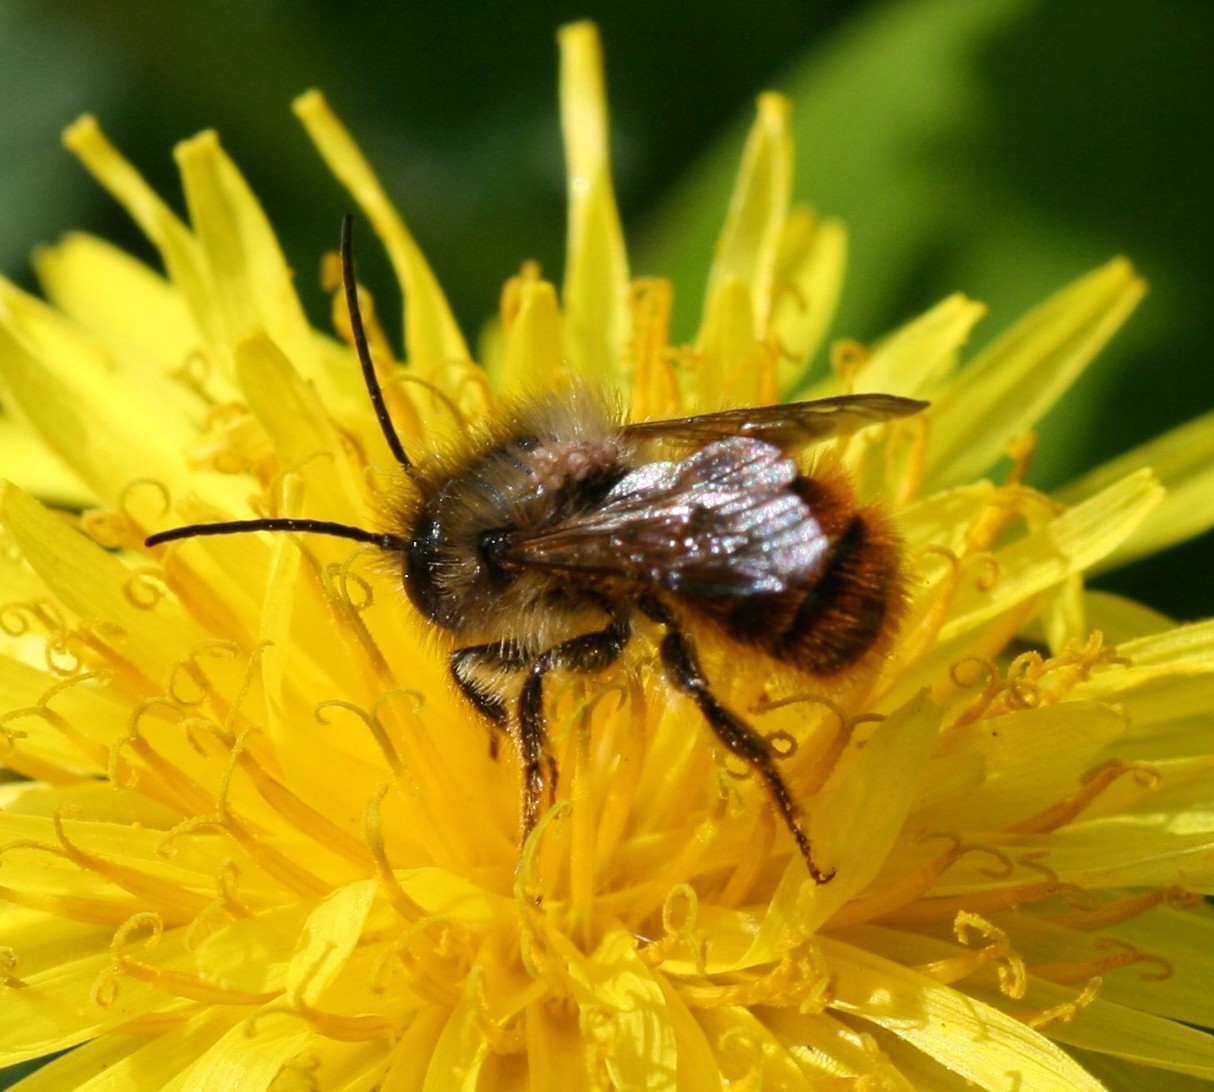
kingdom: Animalia
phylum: Arthropoda
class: Insecta
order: Hymenoptera
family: Megachilidae
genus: Osmia
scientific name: Osmia bicornis
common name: Red mason bee
